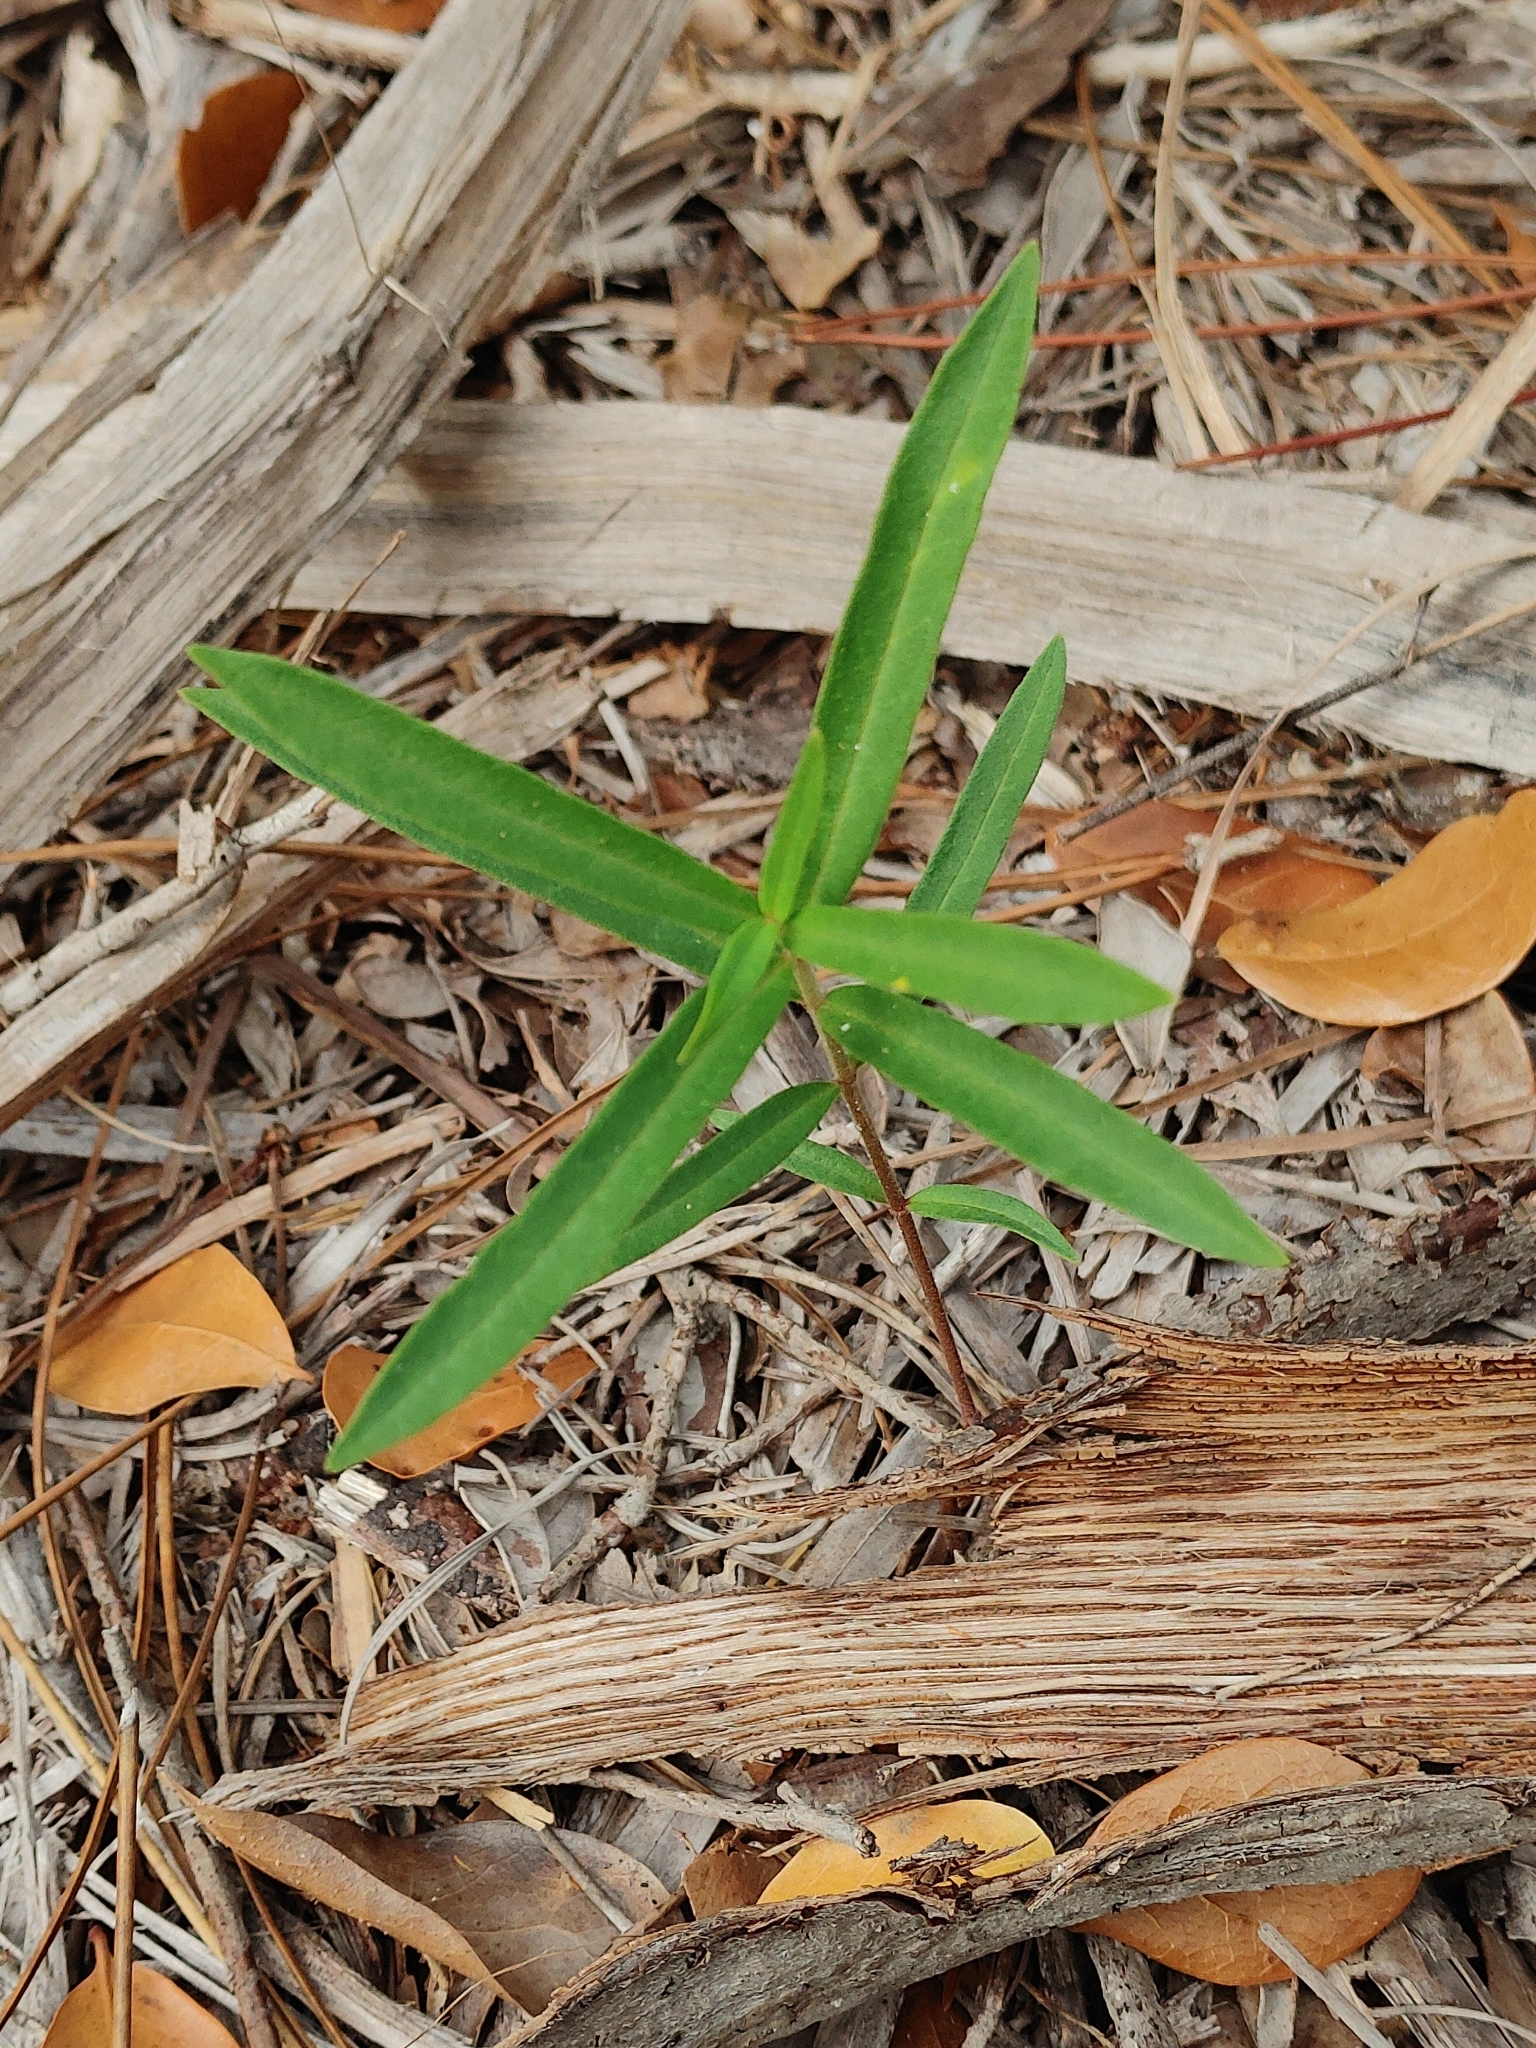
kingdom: Plantae
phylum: Tracheophyta
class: Magnoliopsida
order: Gentianales
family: Apocynaceae
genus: Asclepias
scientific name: Asclepias pedicellata
